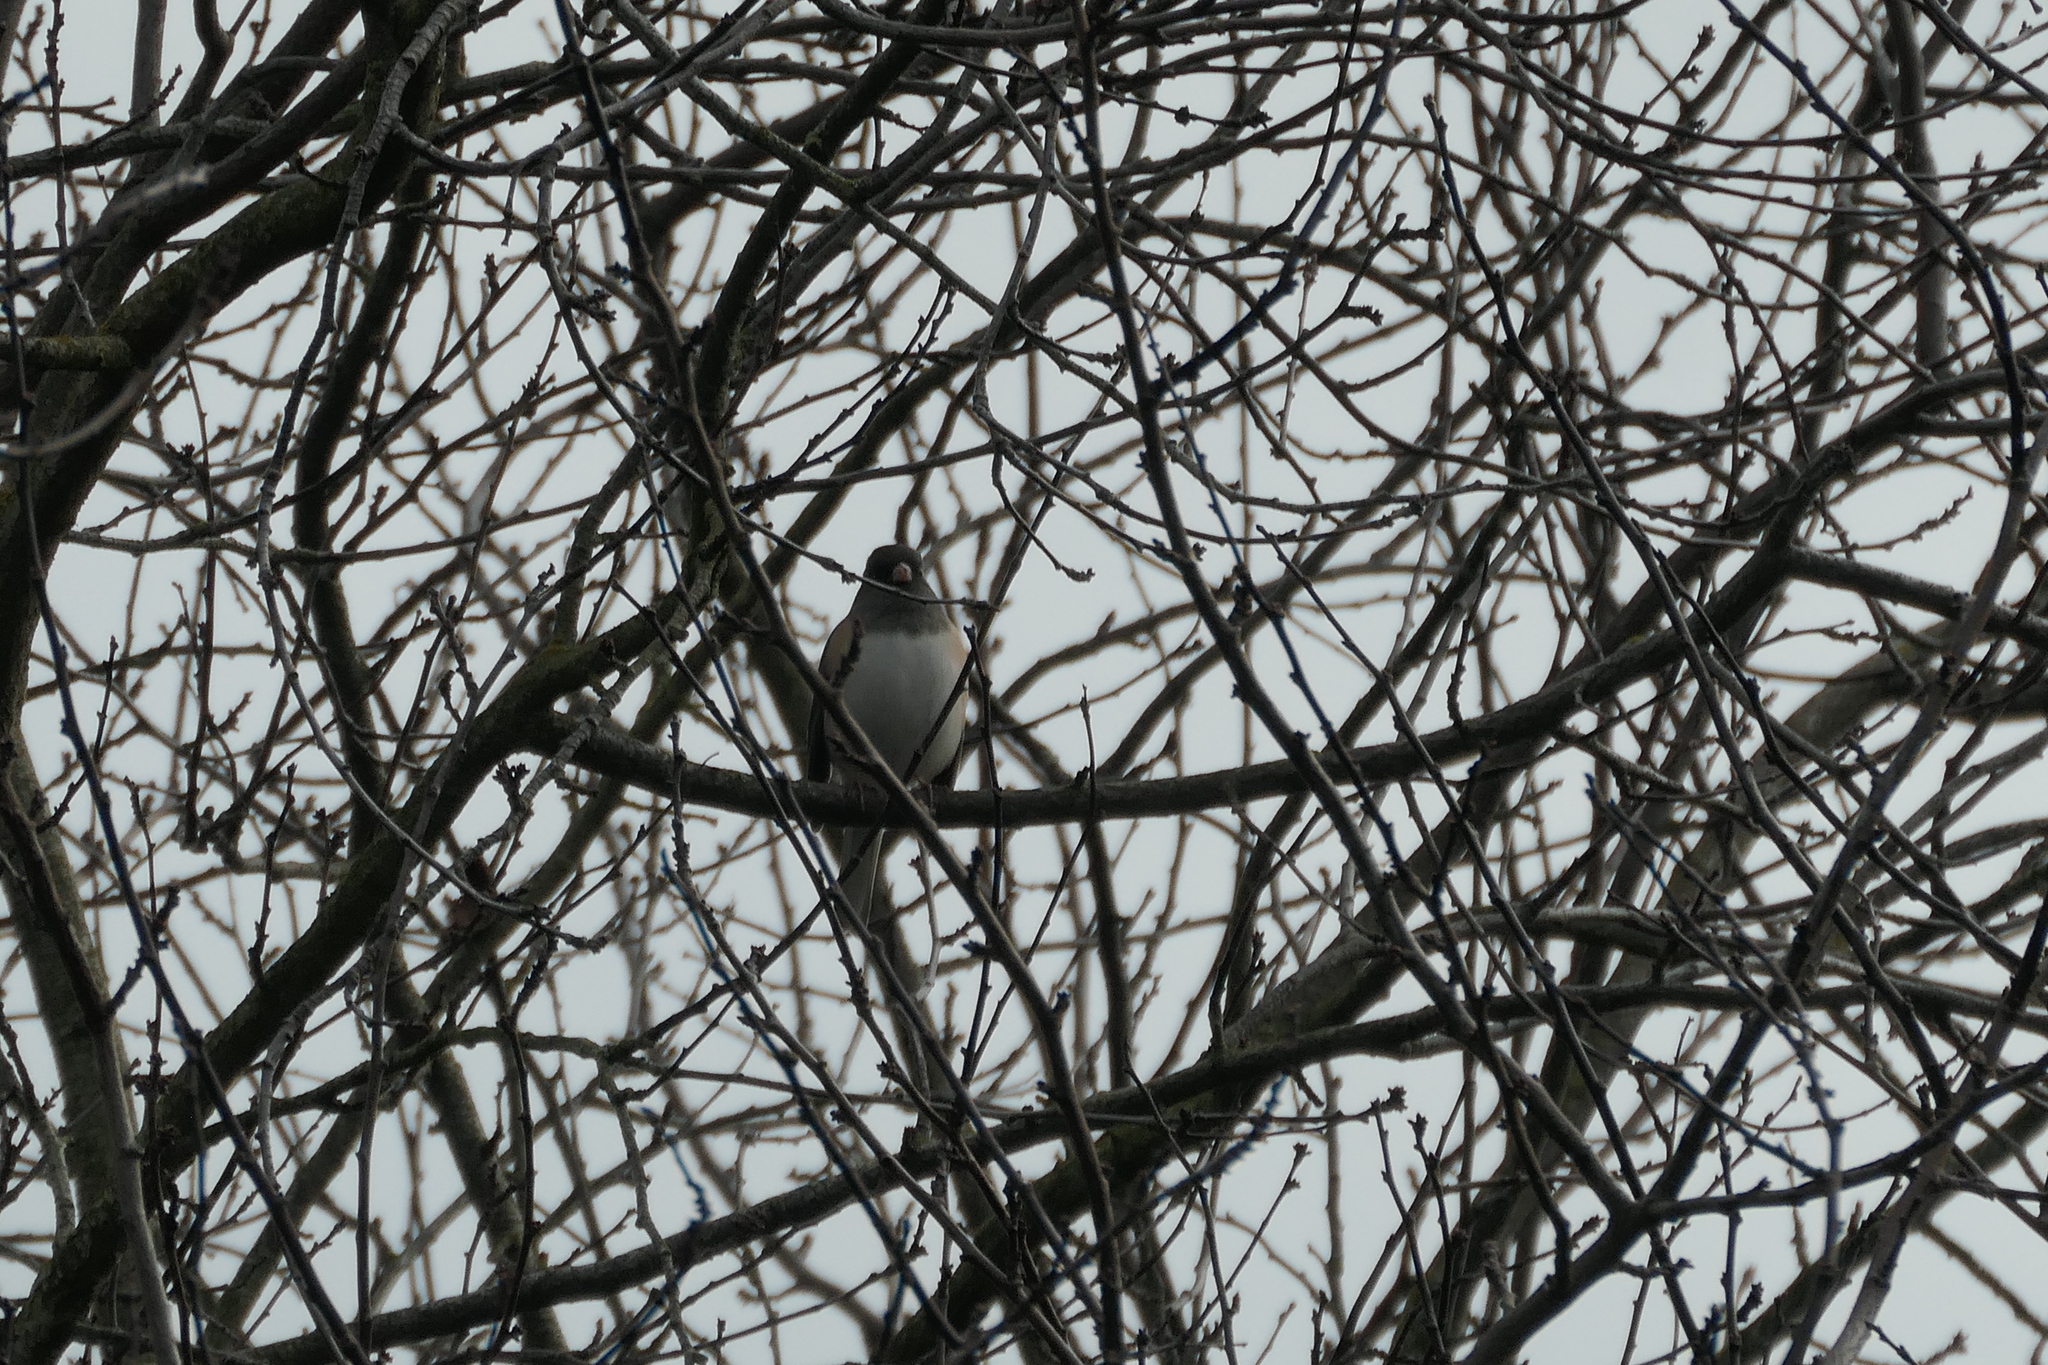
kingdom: Animalia
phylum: Chordata
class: Aves
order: Passeriformes
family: Passerellidae
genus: Junco
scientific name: Junco hyemalis
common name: Dark-eyed junco
